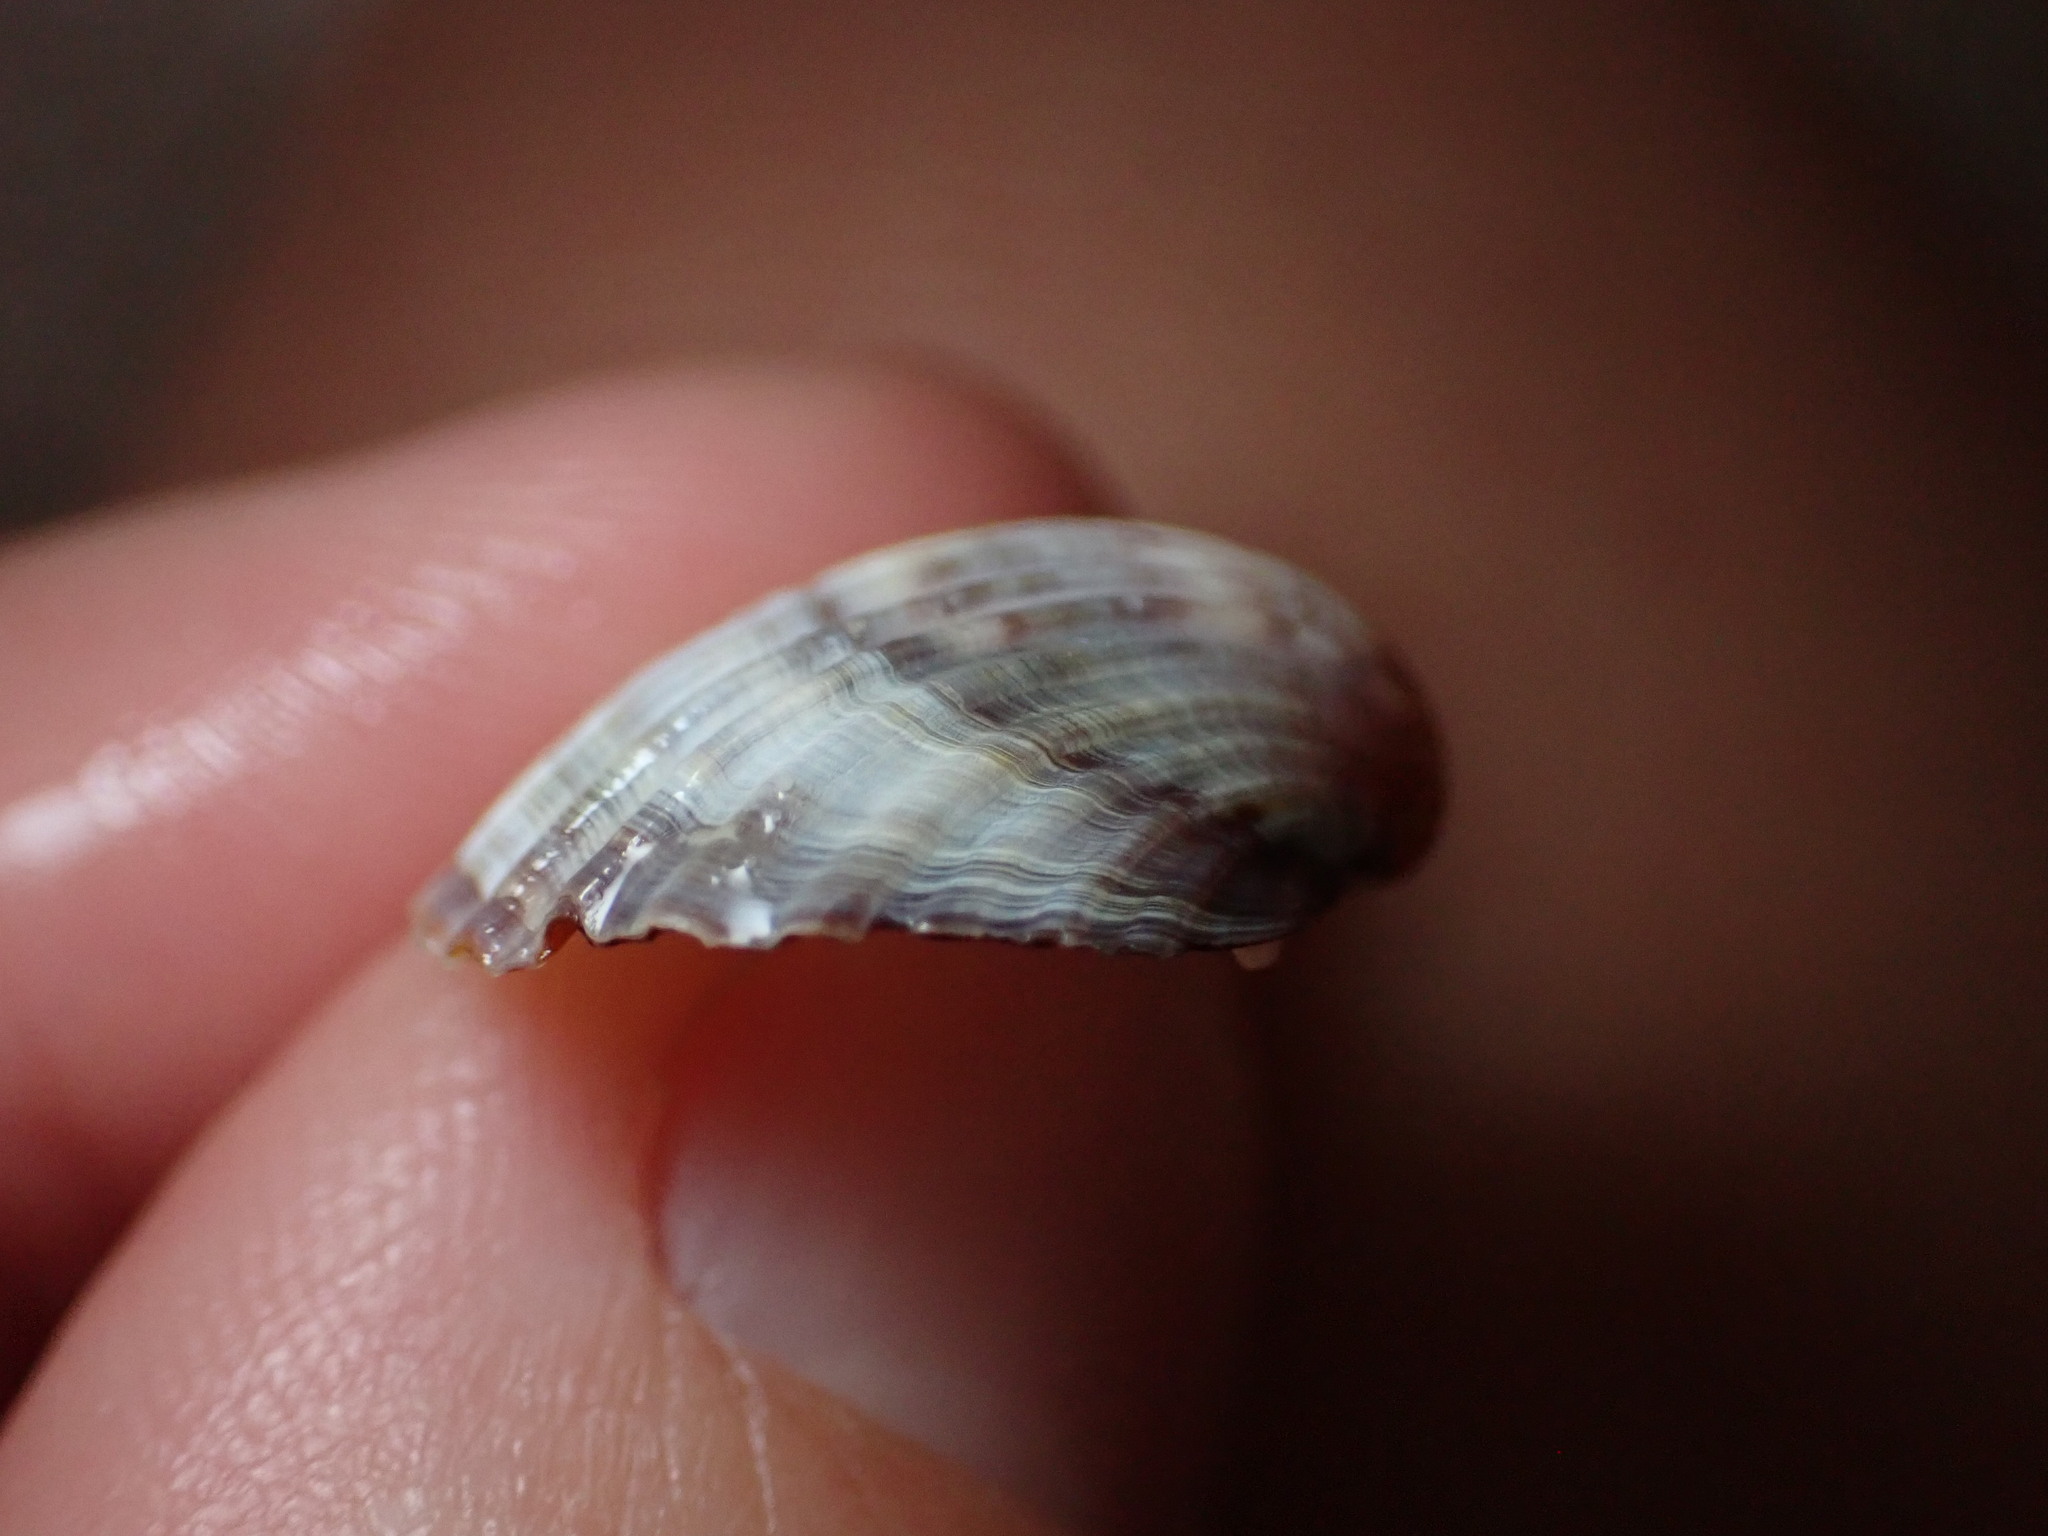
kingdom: Animalia
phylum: Mollusca
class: Bivalvia
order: Cardiida
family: Cardiidae
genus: Cerastoderma
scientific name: Cerastoderma glaucum
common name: Lagoon cockle
